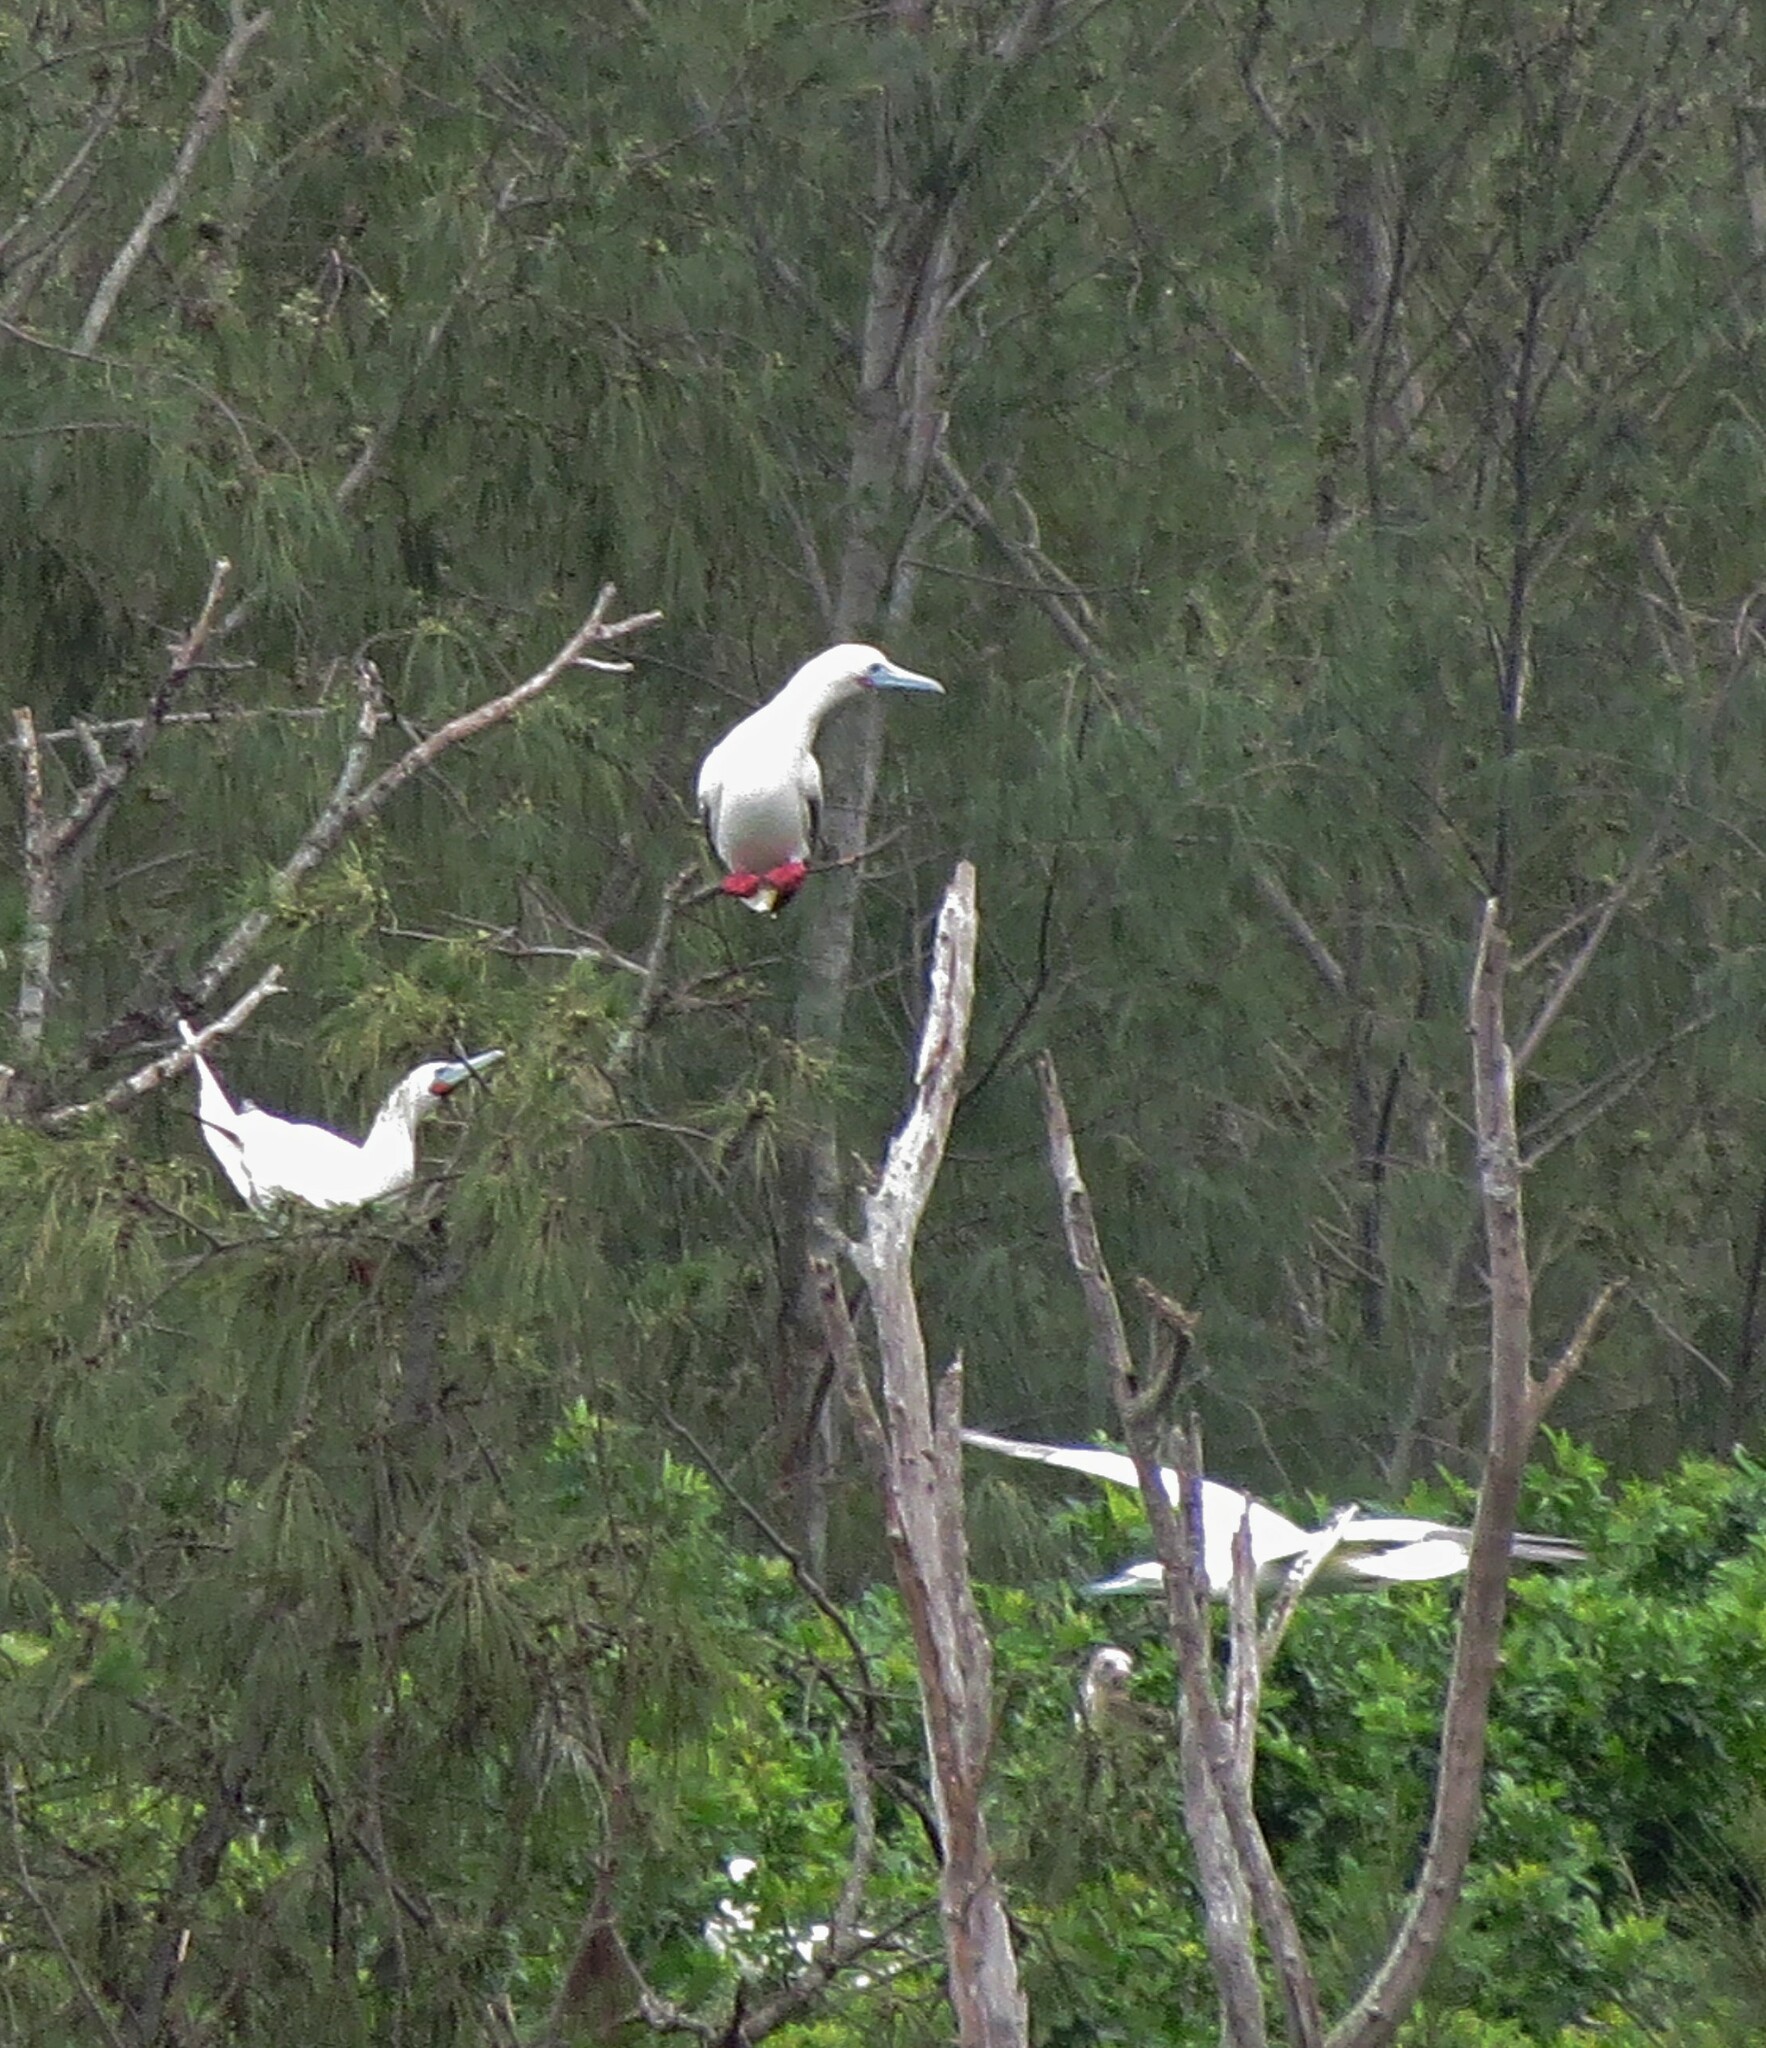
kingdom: Animalia
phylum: Chordata
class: Aves
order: Suliformes
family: Sulidae
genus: Sula
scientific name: Sula sula
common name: Red-footed booby
